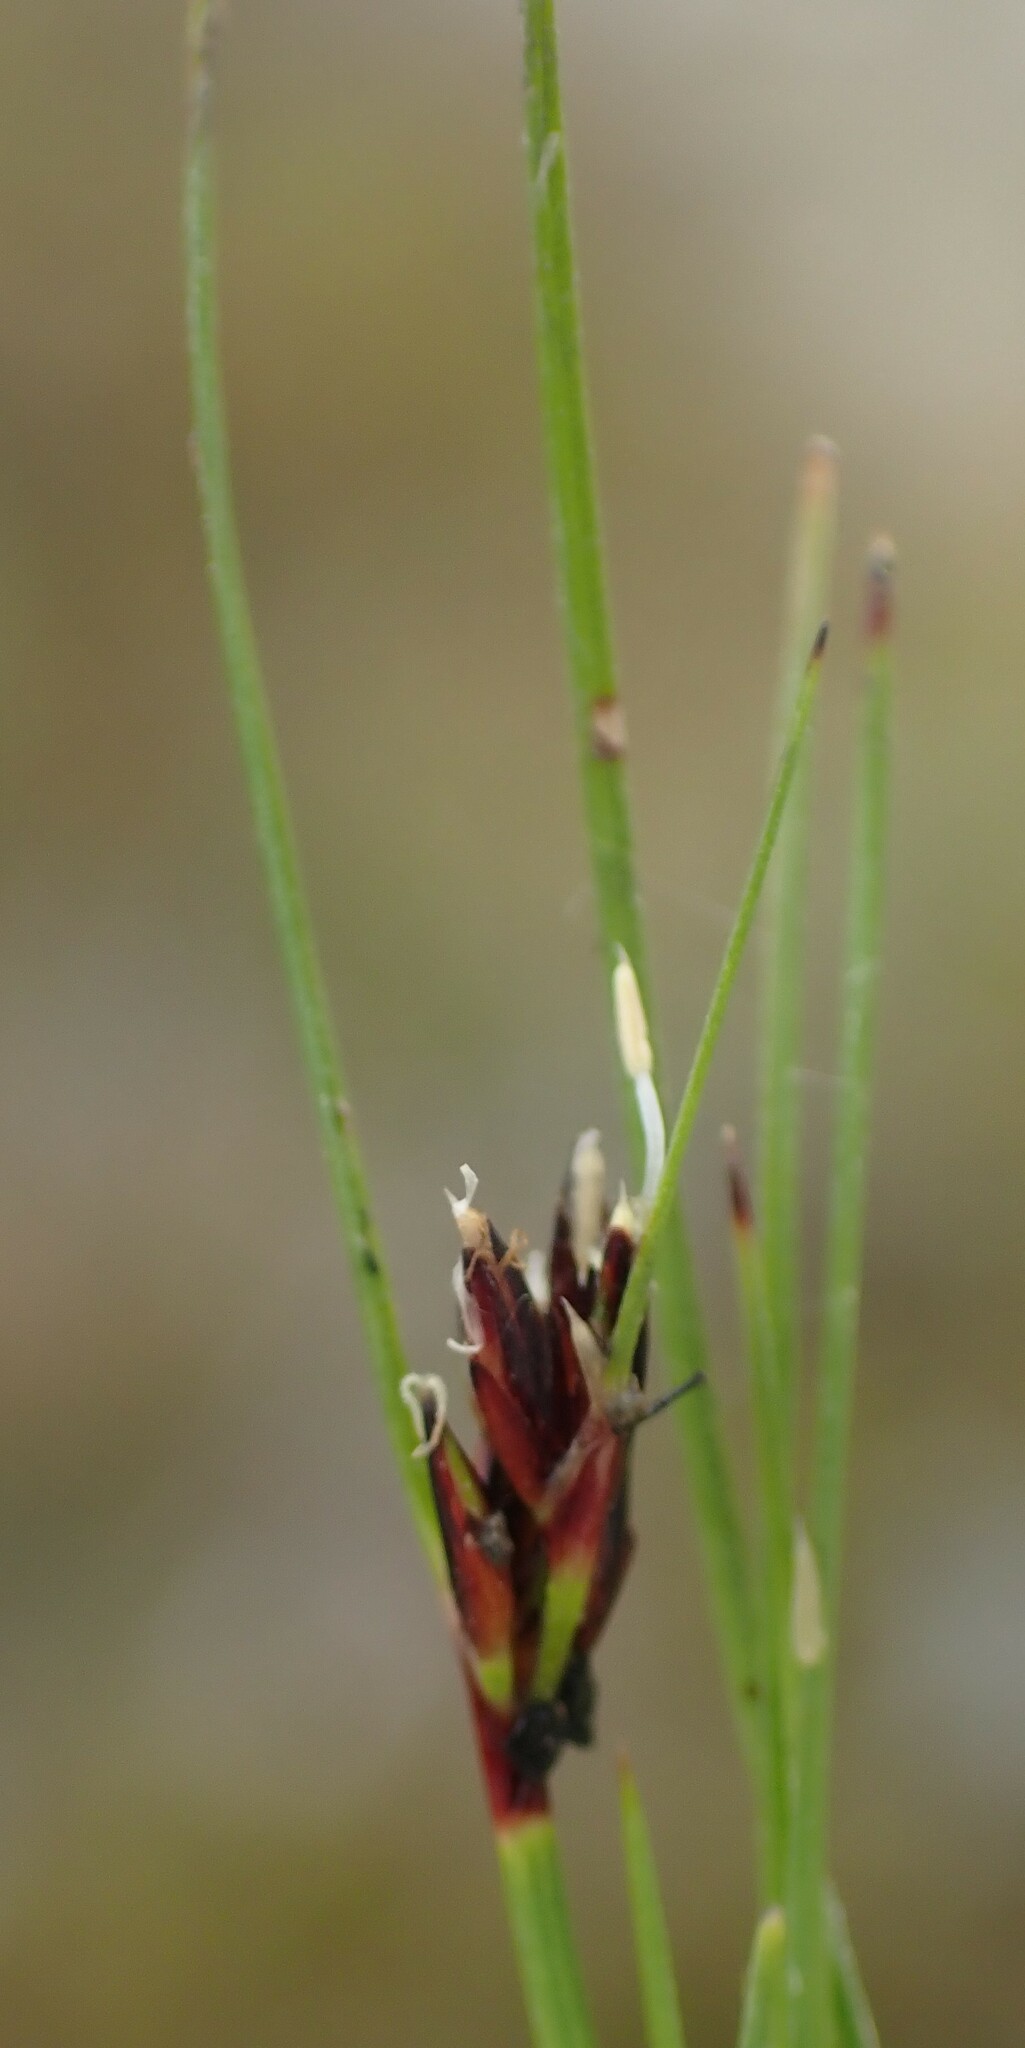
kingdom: Plantae
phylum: Tracheophyta
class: Liliopsida
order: Poales
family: Cyperaceae
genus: Schoenus
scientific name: Schoenus apogon
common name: Smooth bogrush
